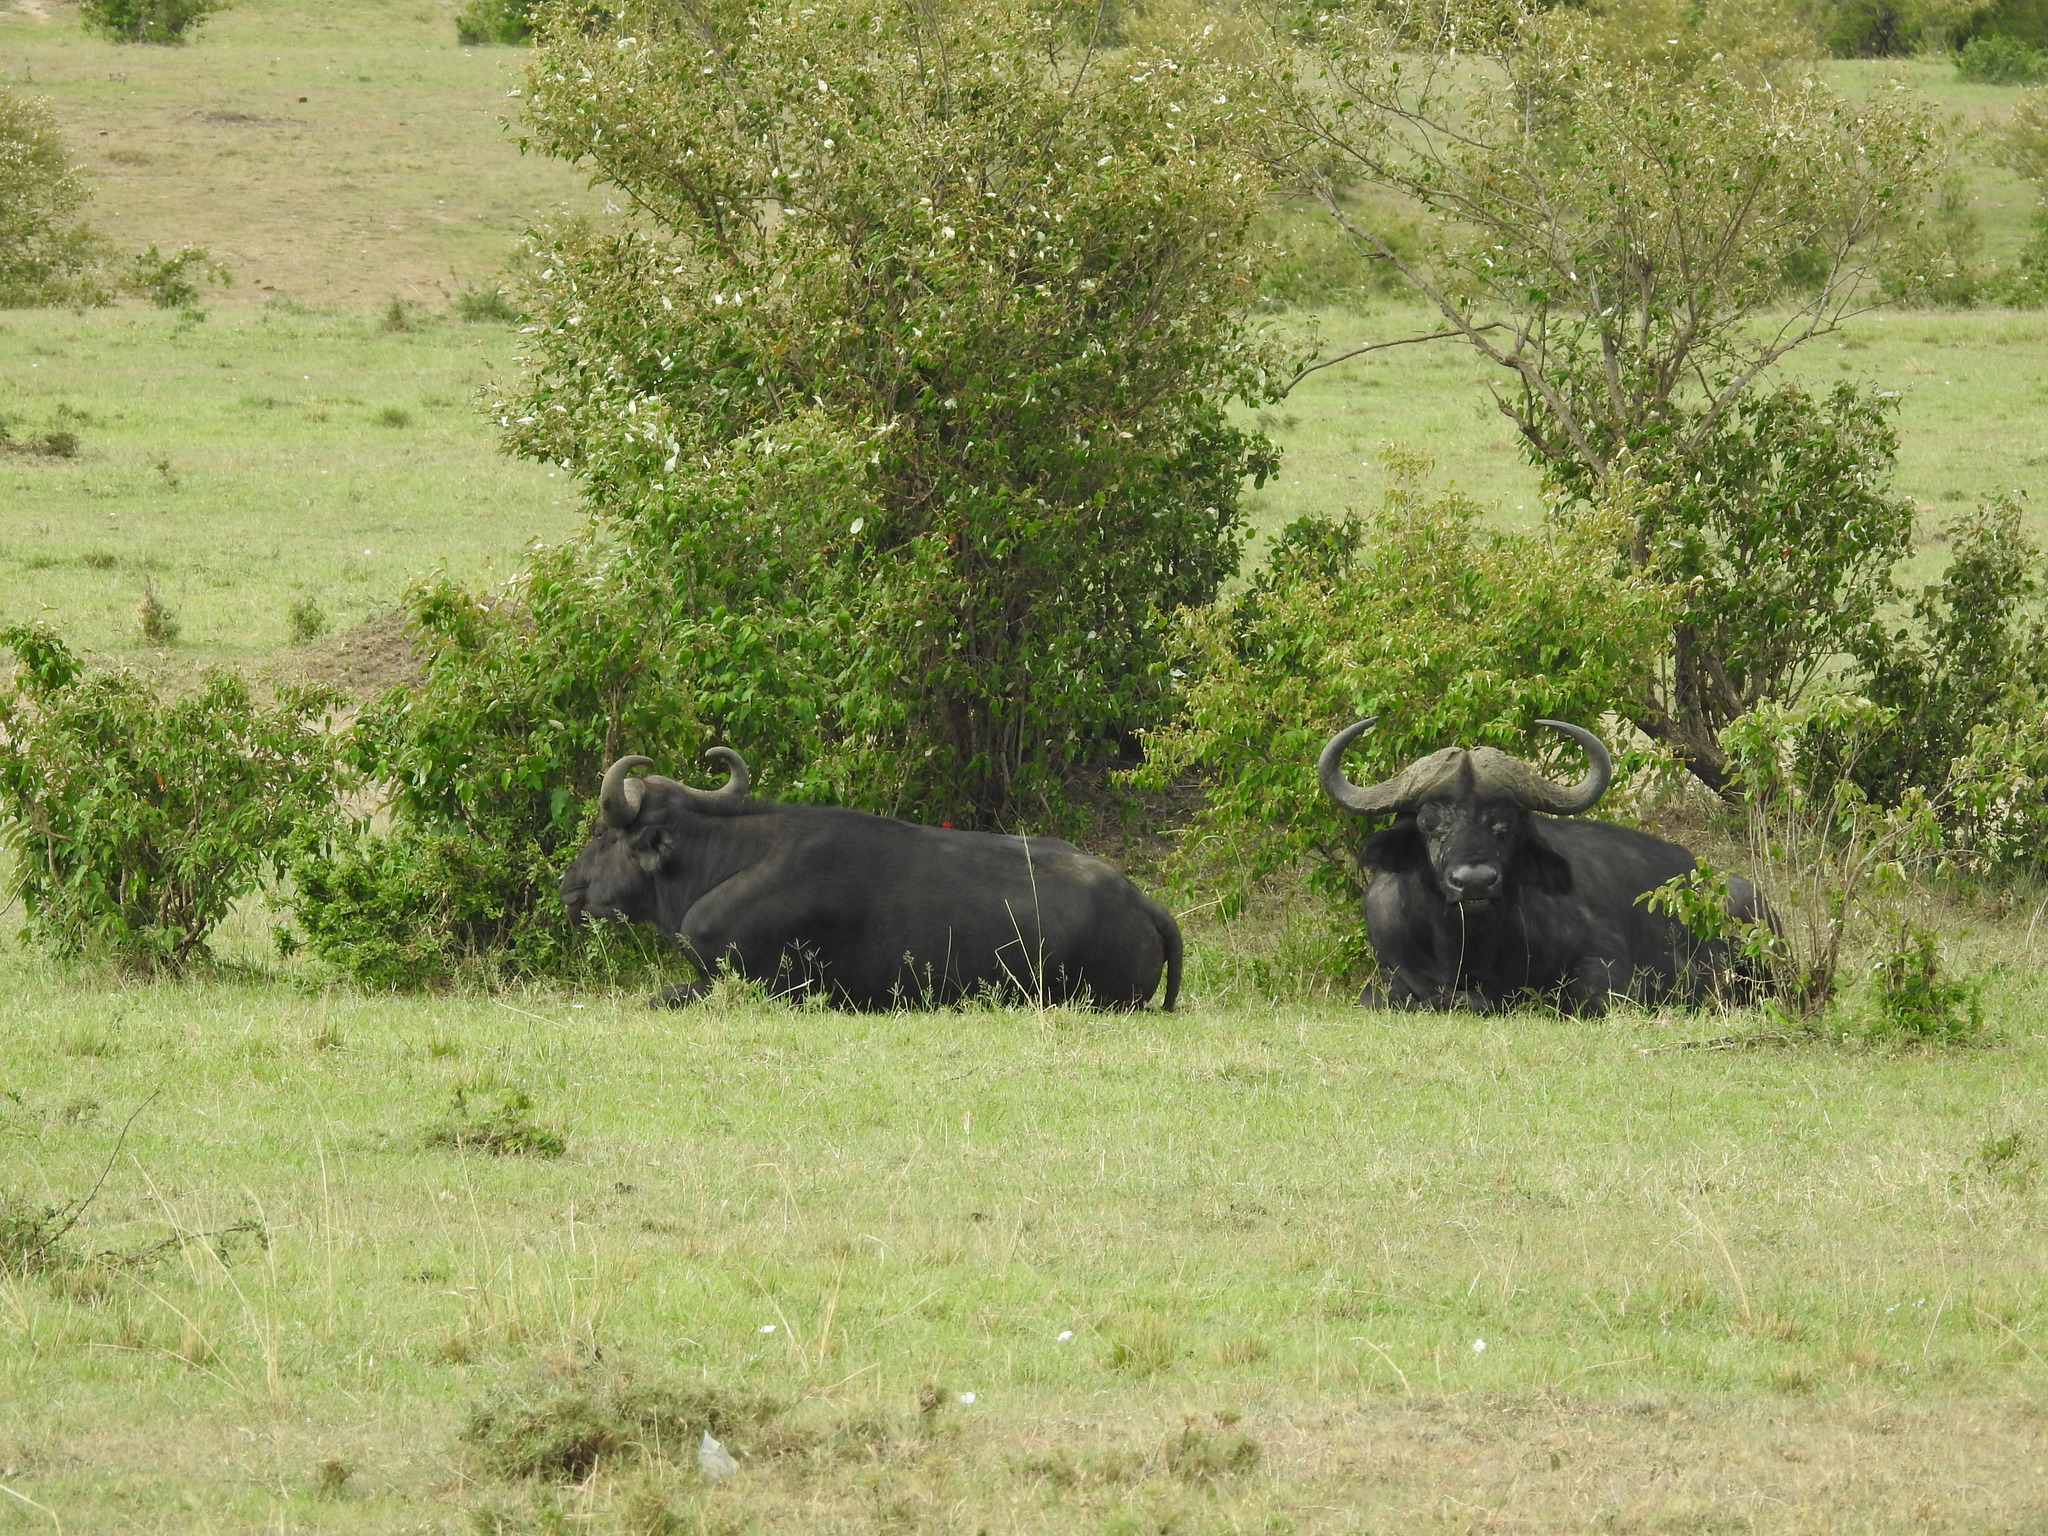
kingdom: Animalia
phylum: Chordata
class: Mammalia
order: Artiodactyla
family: Bovidae
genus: Syncerus
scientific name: Syncerus caffer
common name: African buffalo
